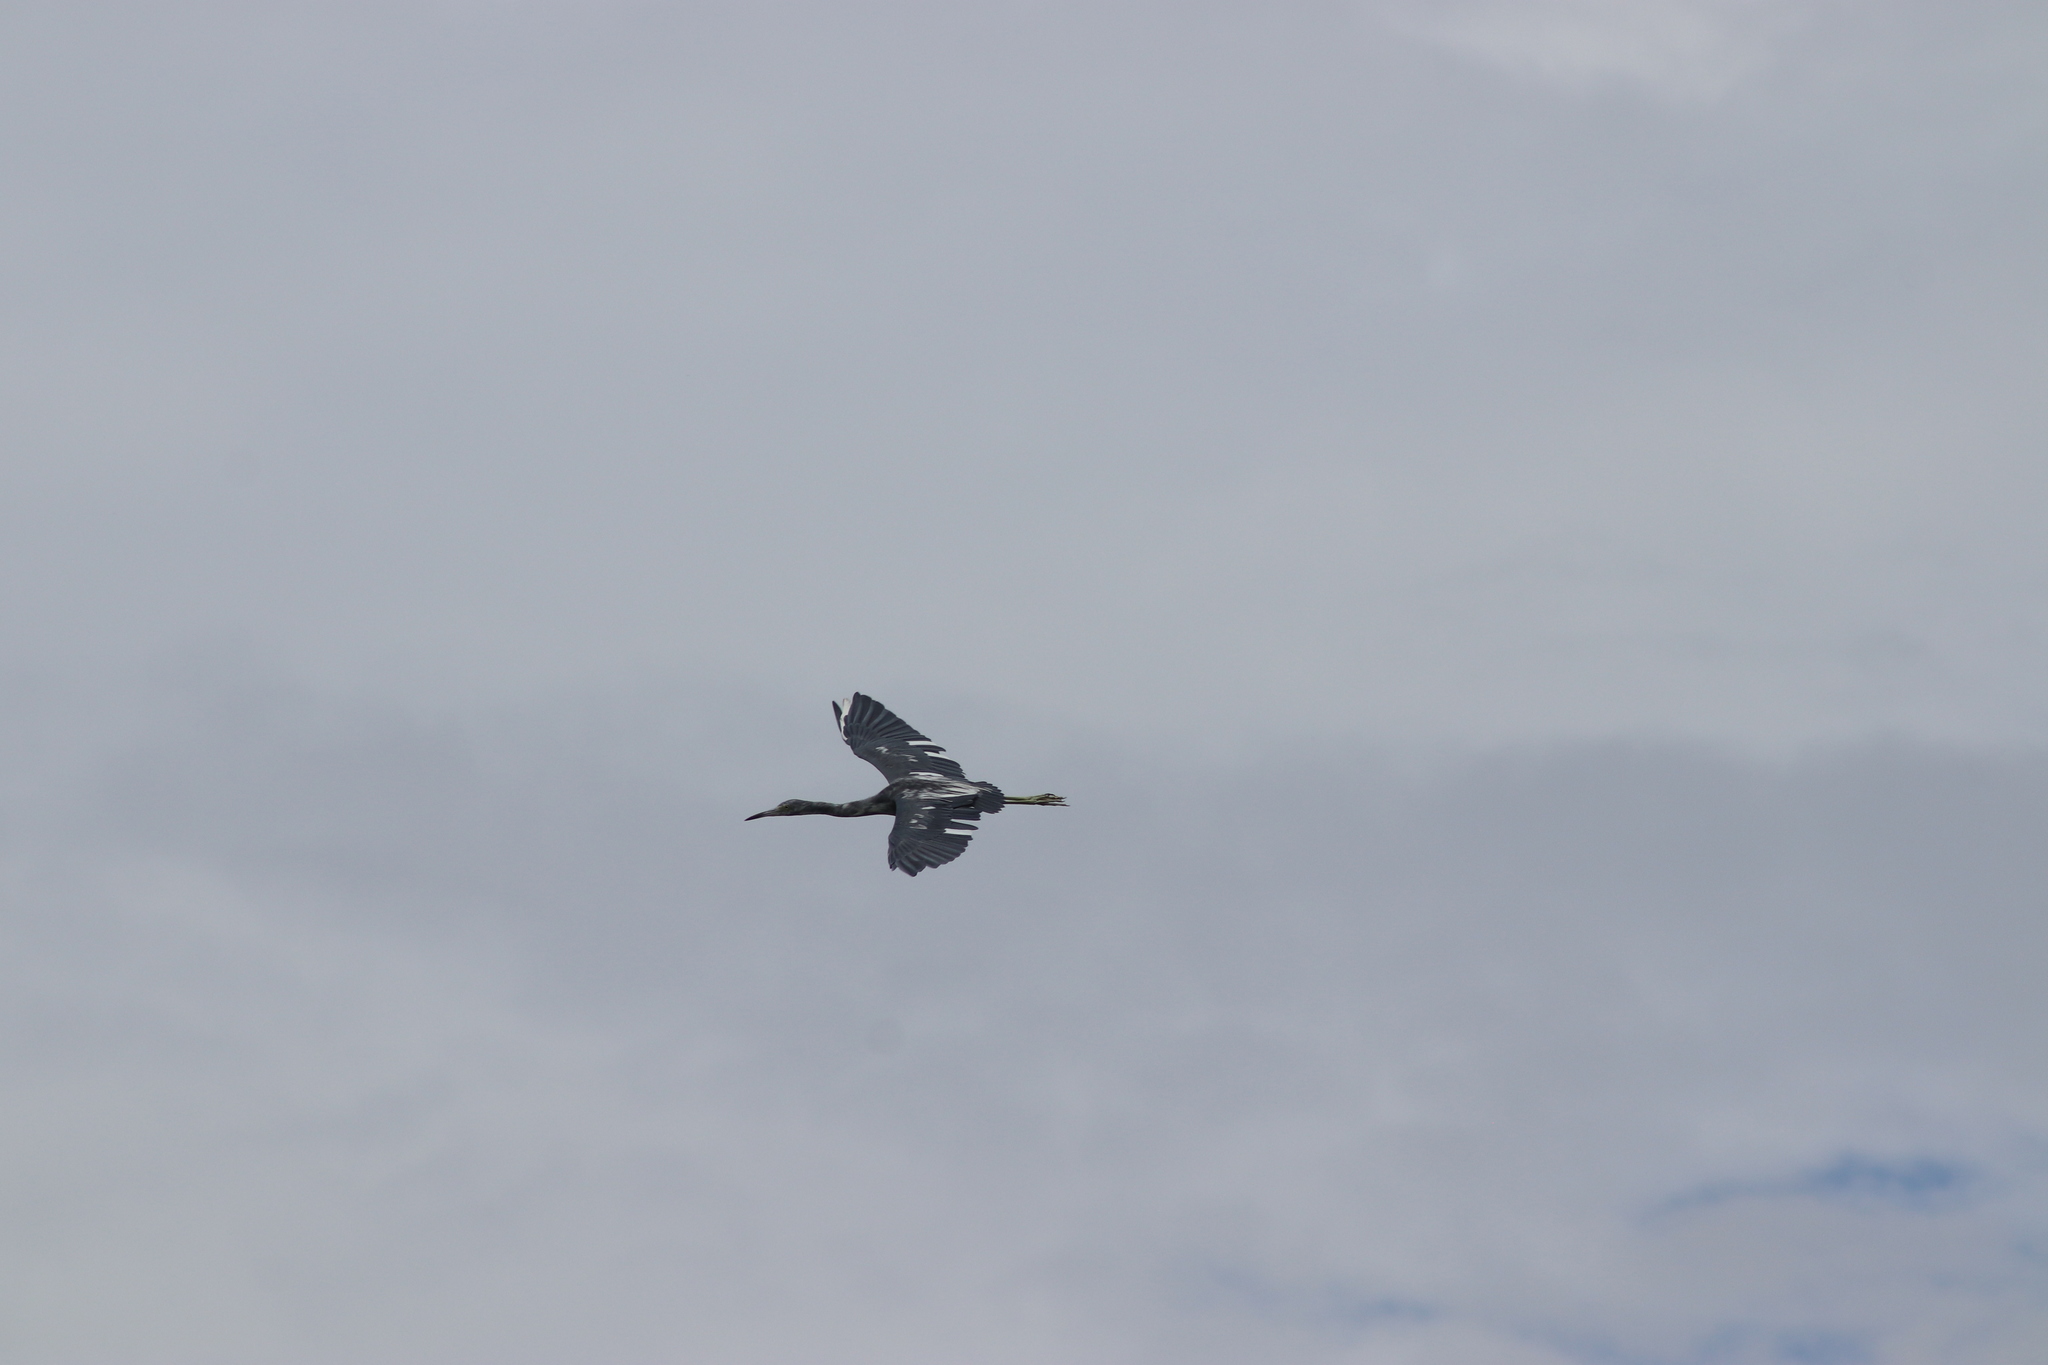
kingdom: Animalia
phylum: Chordata
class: Aves
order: Pelecaniformes
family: Ardeidae
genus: Egretta
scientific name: Egretta caerulea
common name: Little blue heron
